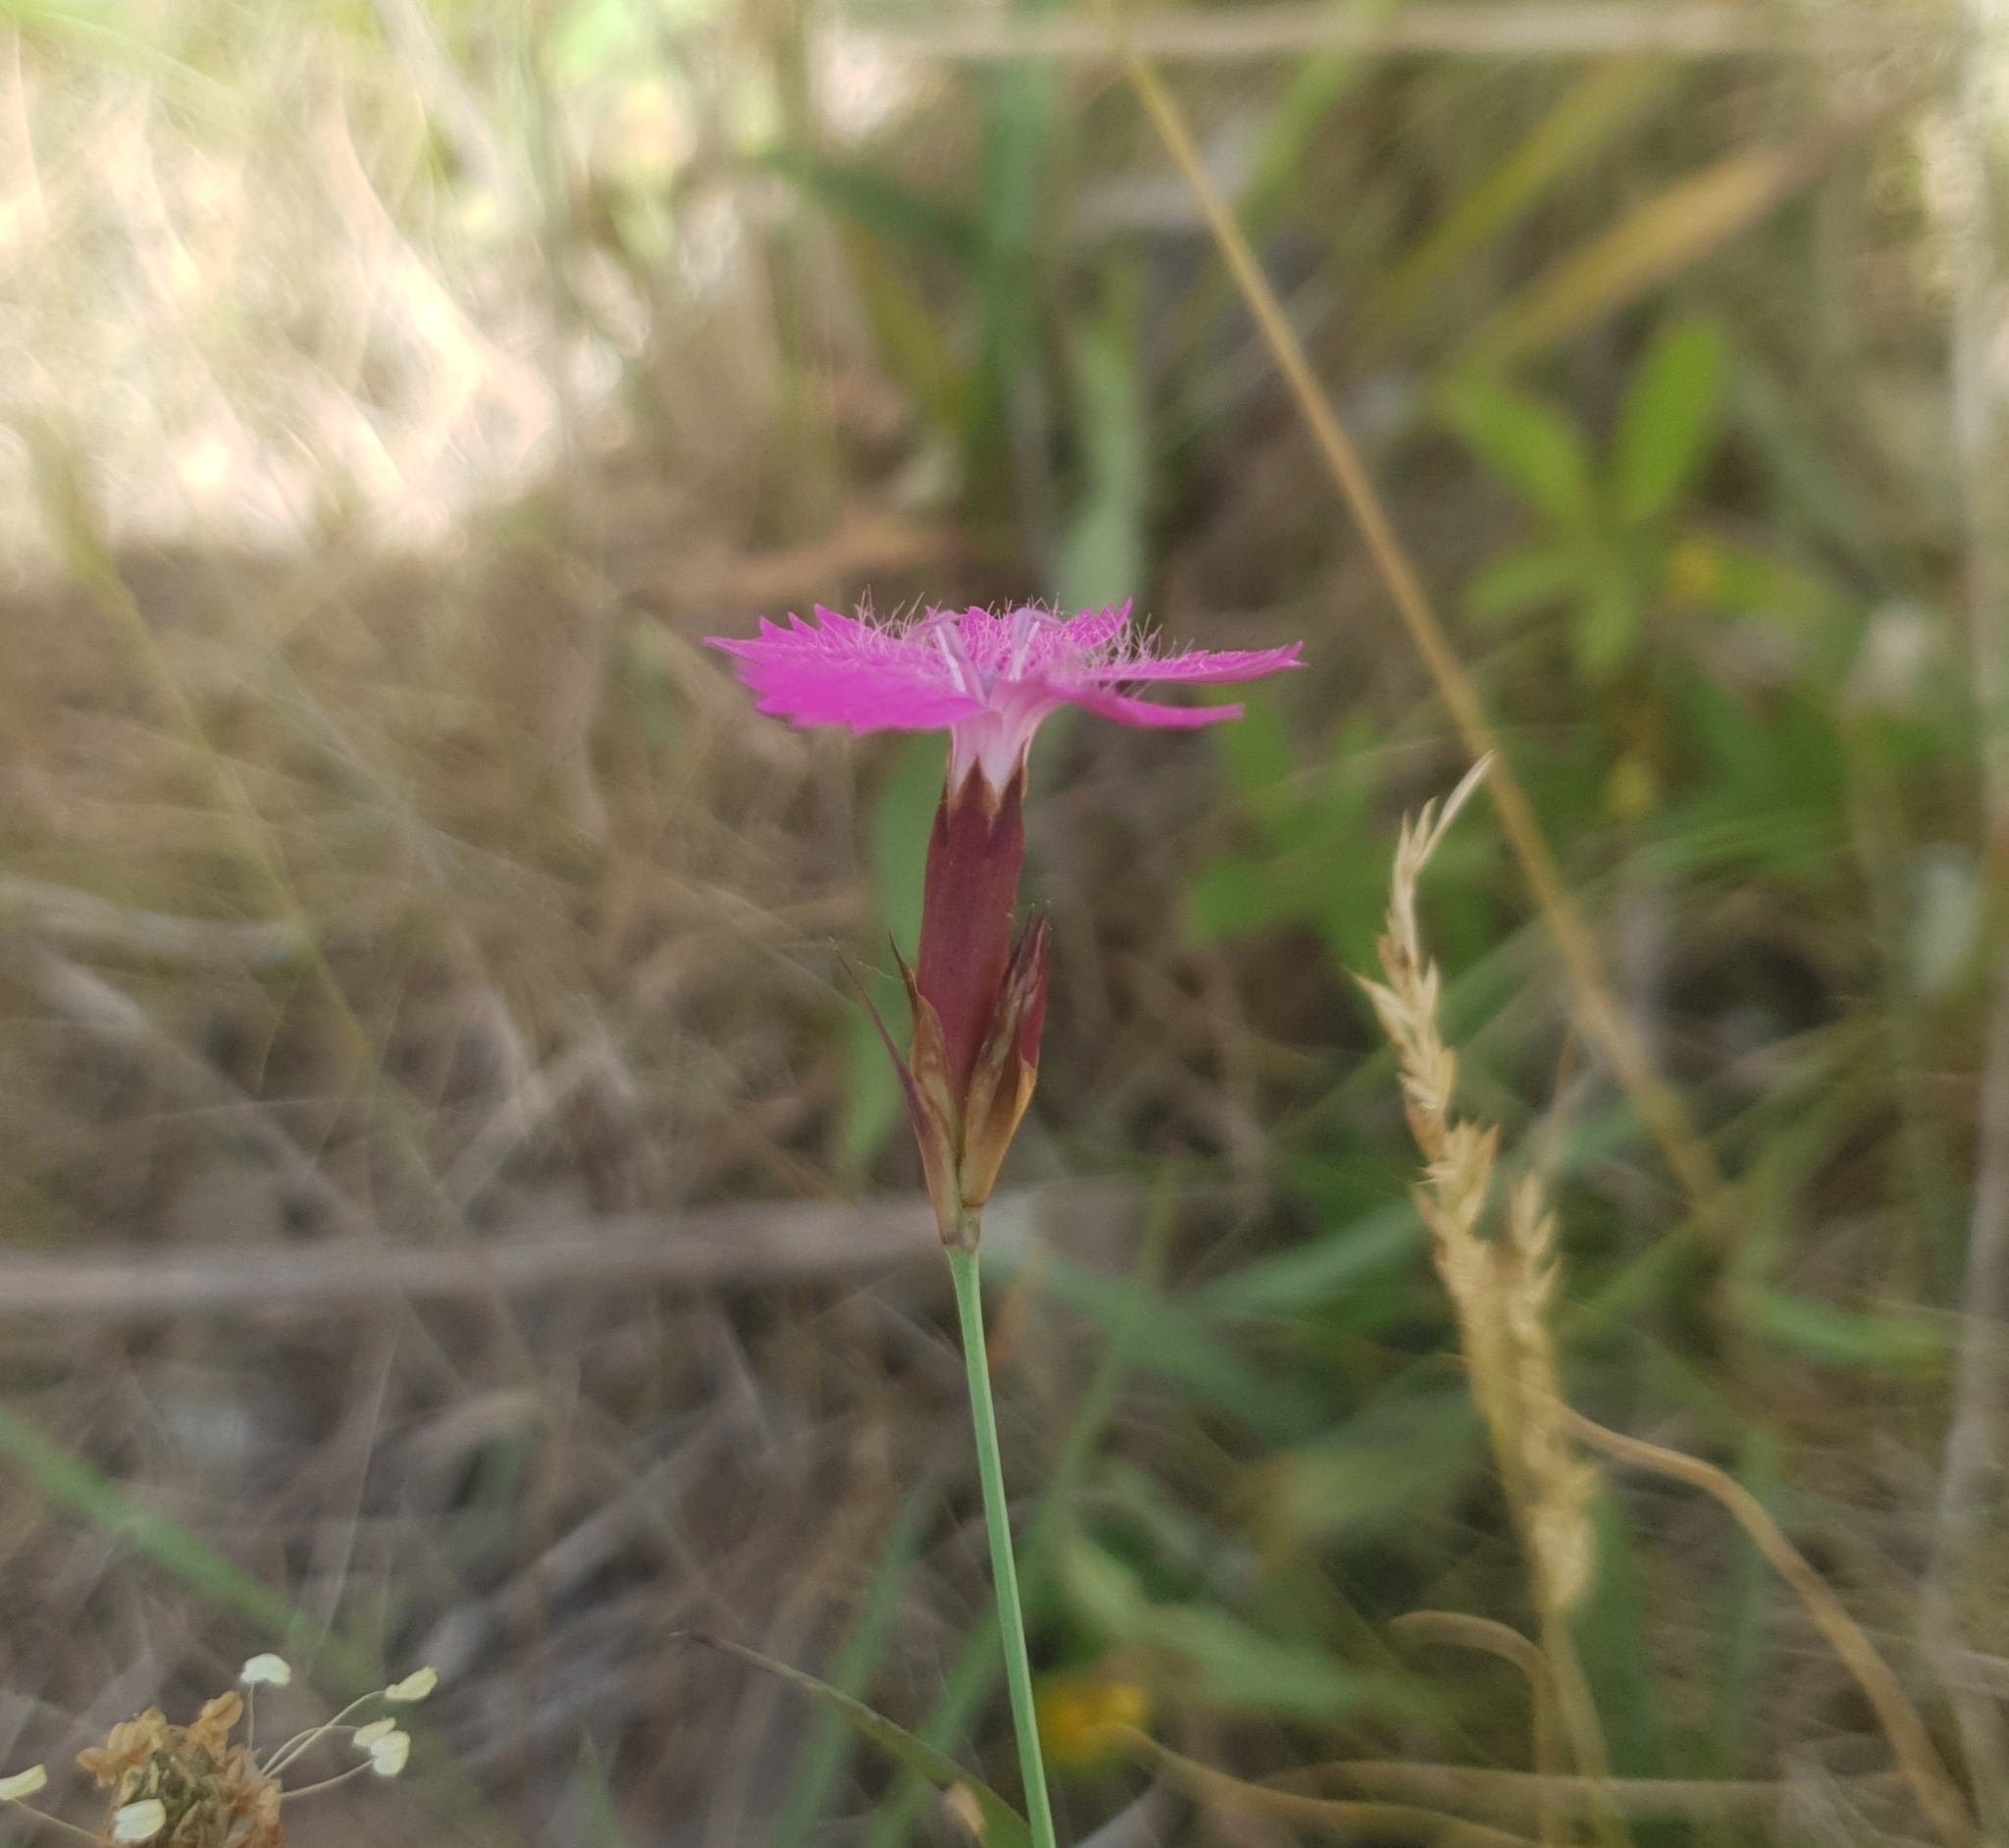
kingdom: Plantae
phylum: Tracheophyta
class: Magnoliopsida
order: Caryophyllales
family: Caryophyllaceae
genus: Dianthus
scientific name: Dianthus carthusianorum
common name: Carthusian pink
